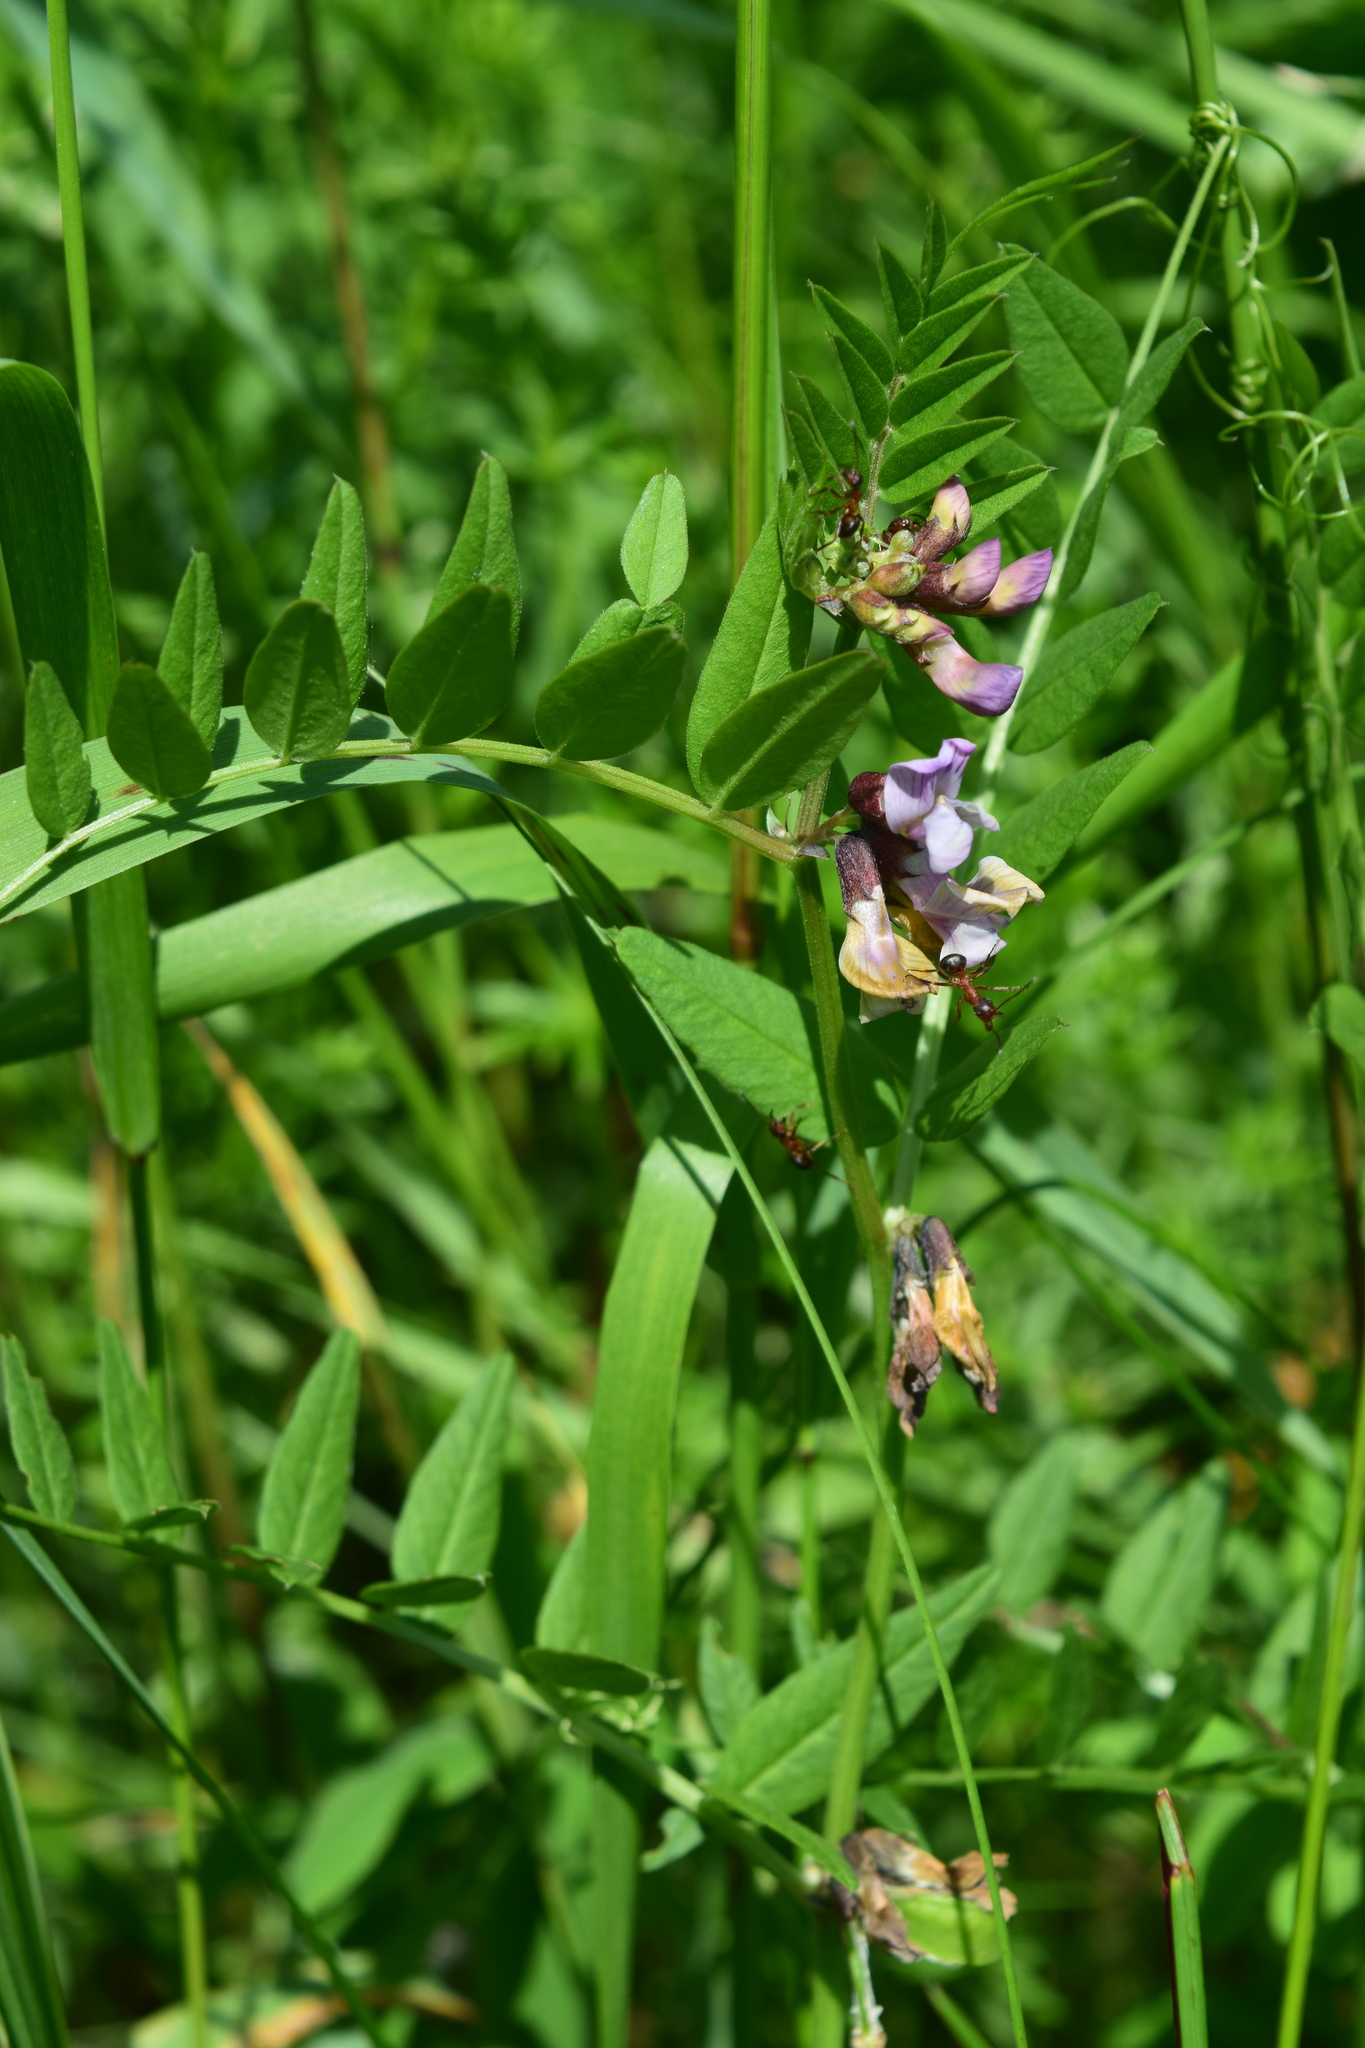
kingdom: Plantae
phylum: Tracheophyta
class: Magnoliopsida
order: Fabales
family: Fabaceae
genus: Vicia
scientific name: Vicia sepium
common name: Bush vetch
